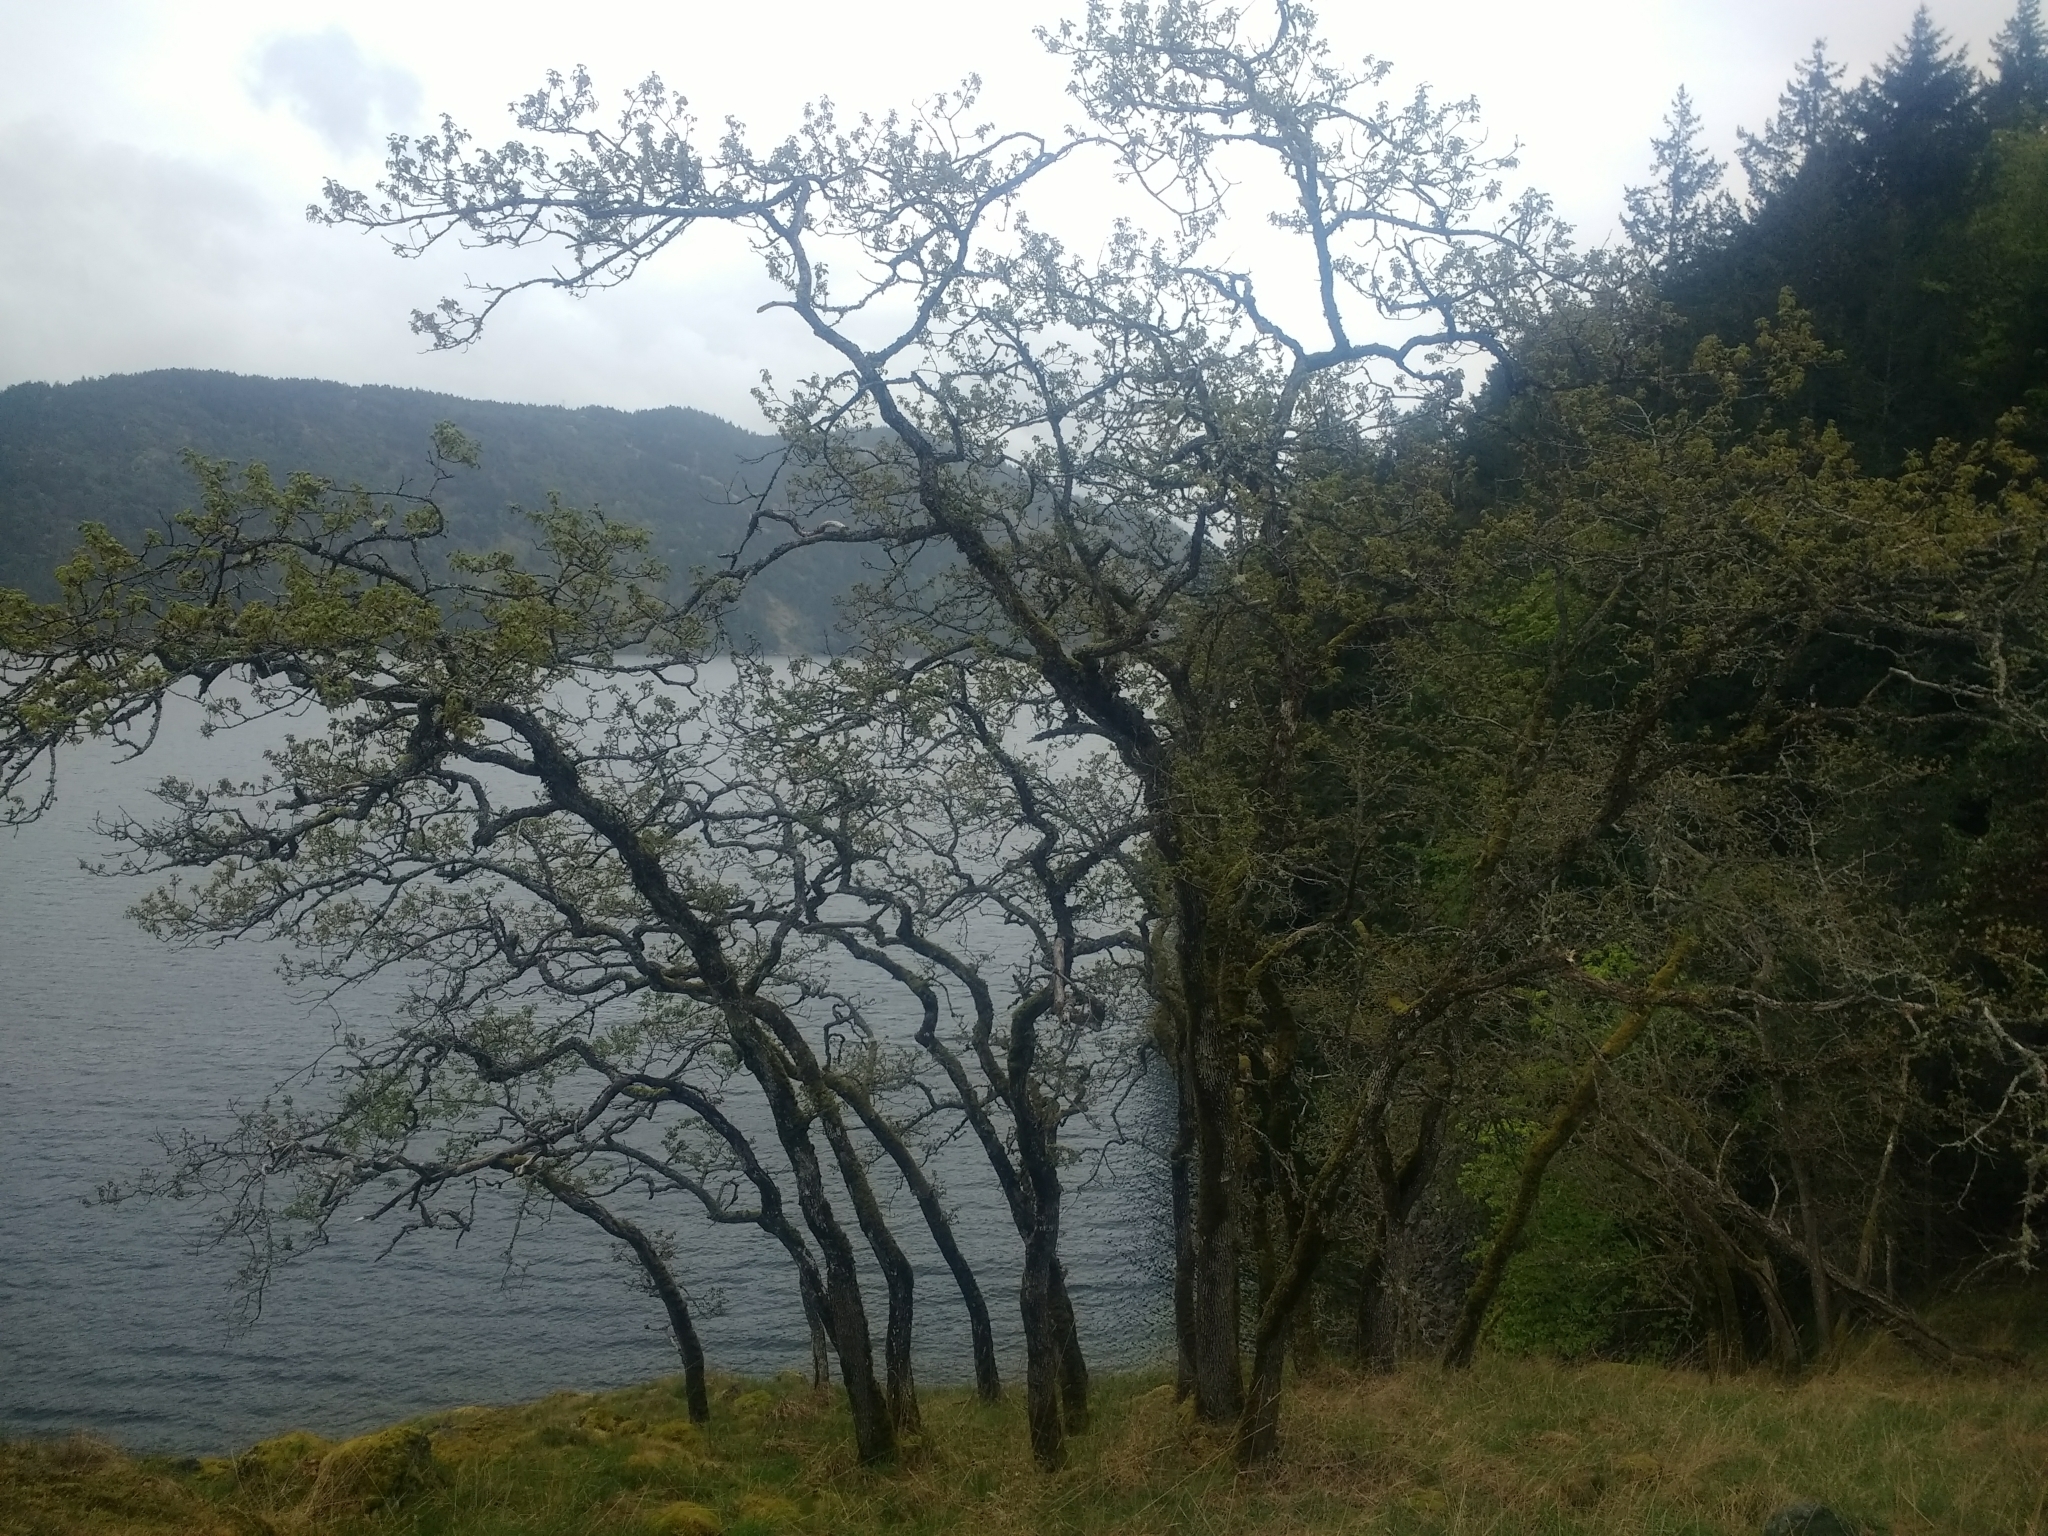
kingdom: Plantae
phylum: Tracheophyta
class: Magnoliopsida
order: Fagales
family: Fagaceae
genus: Quercus
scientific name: Quercus garryana
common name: Garry oak
